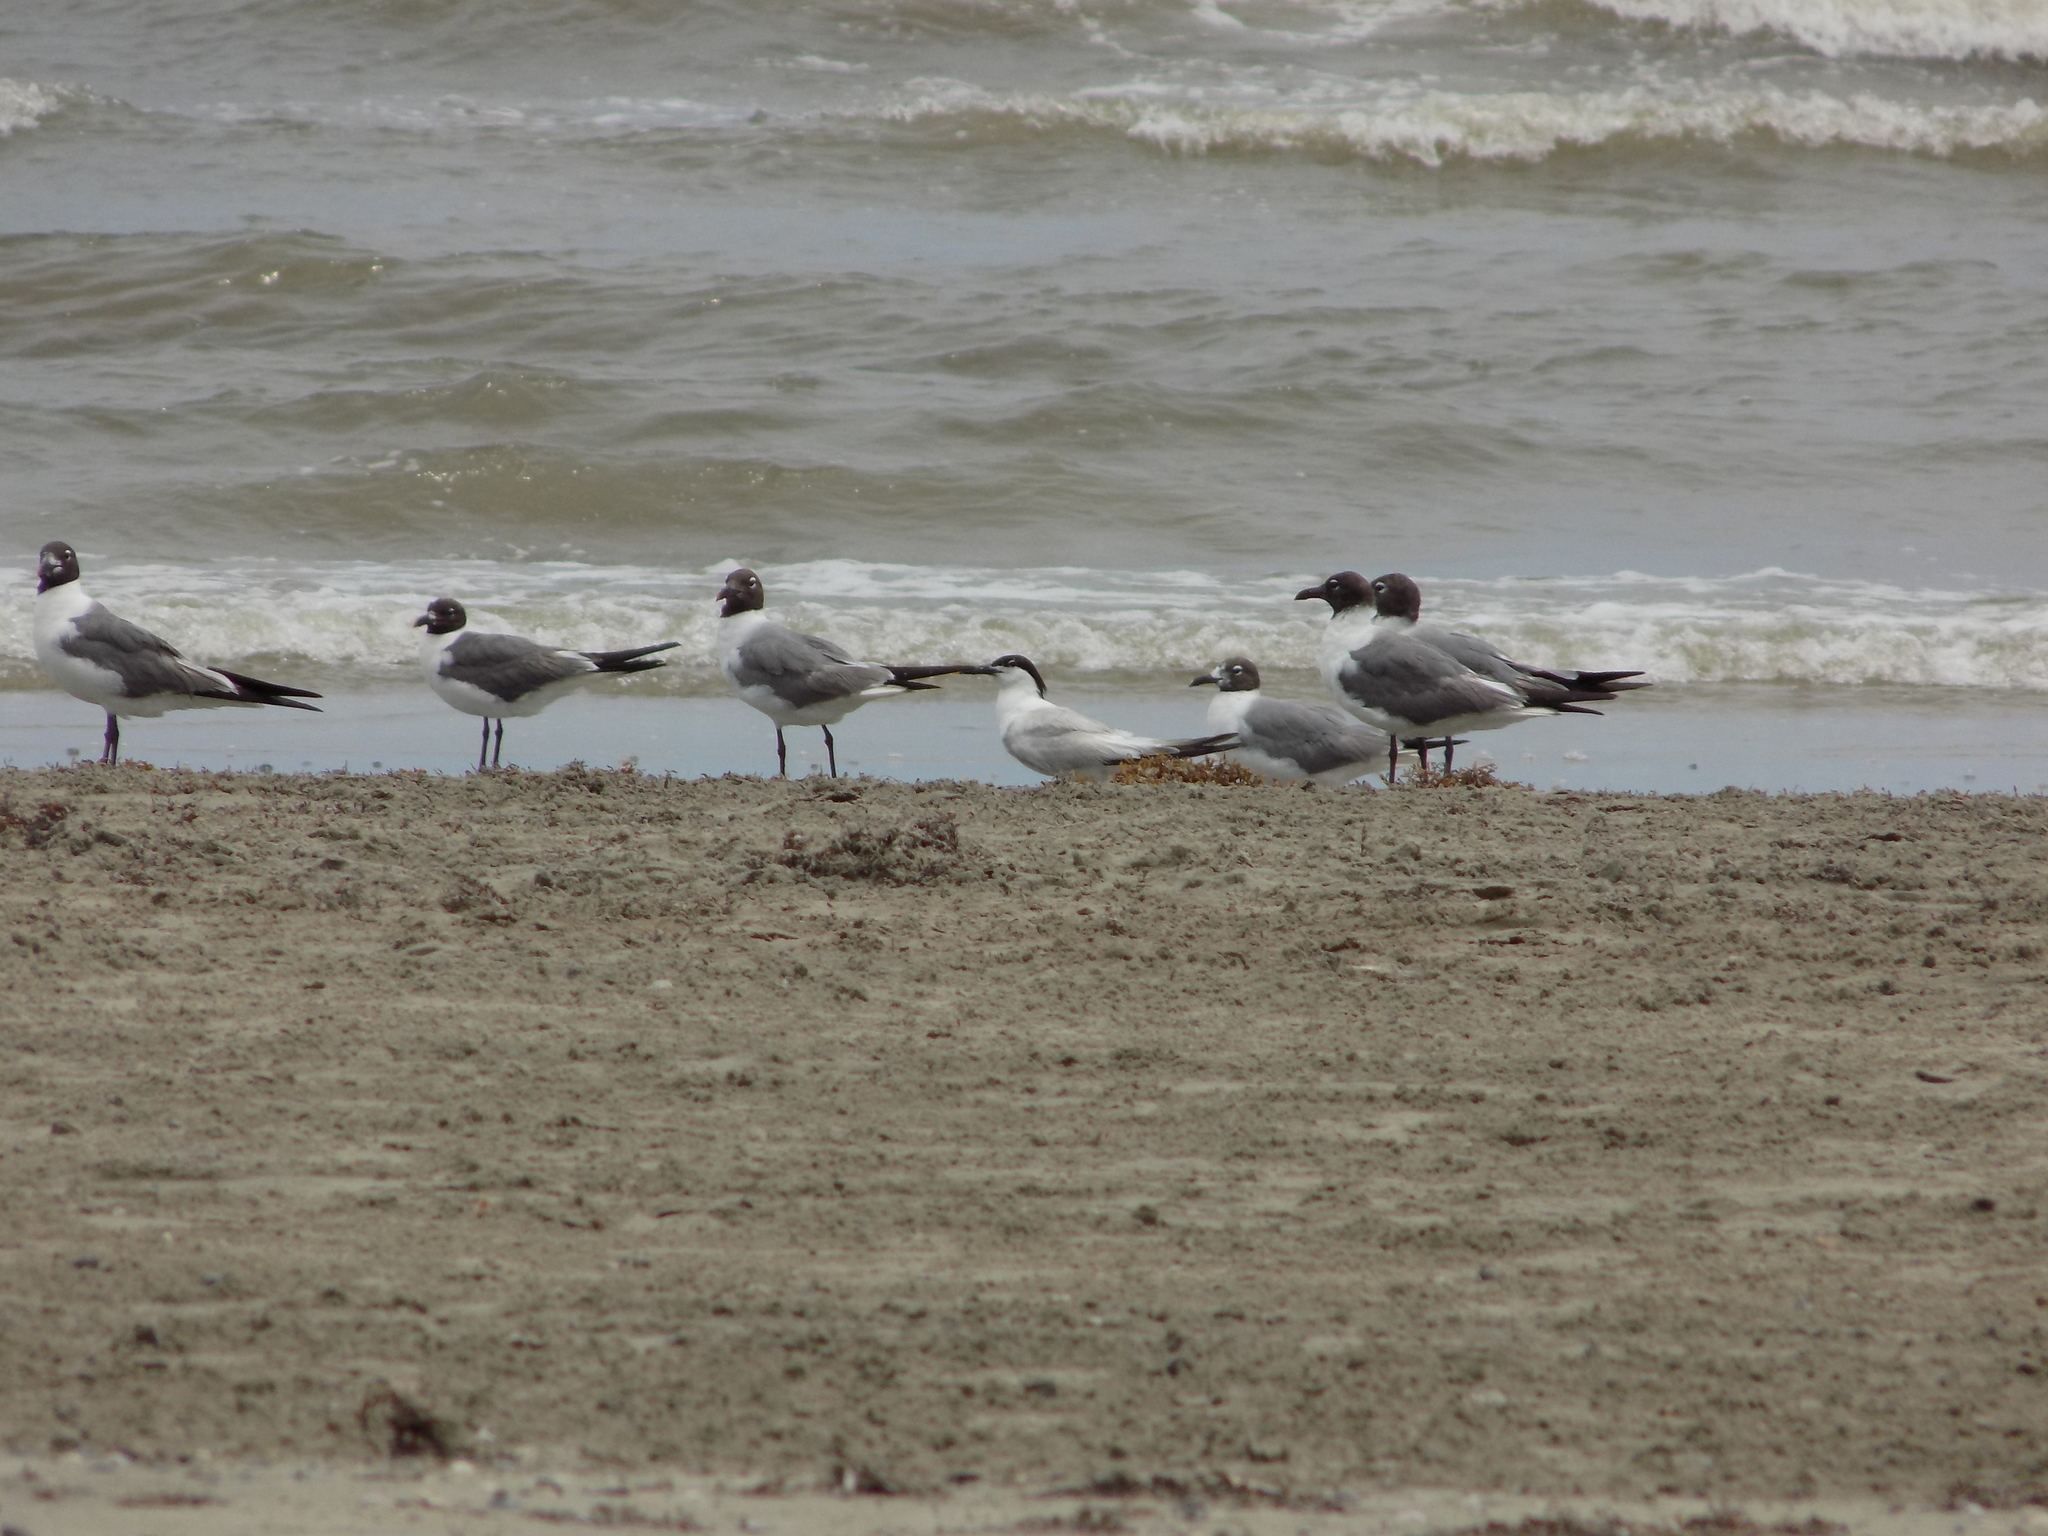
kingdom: Animalia
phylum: Chordata
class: Aves
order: Charadriiformes
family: Laridae
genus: Thalasseus
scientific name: Thalasseus sandvicensis
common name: Sandwich tern
